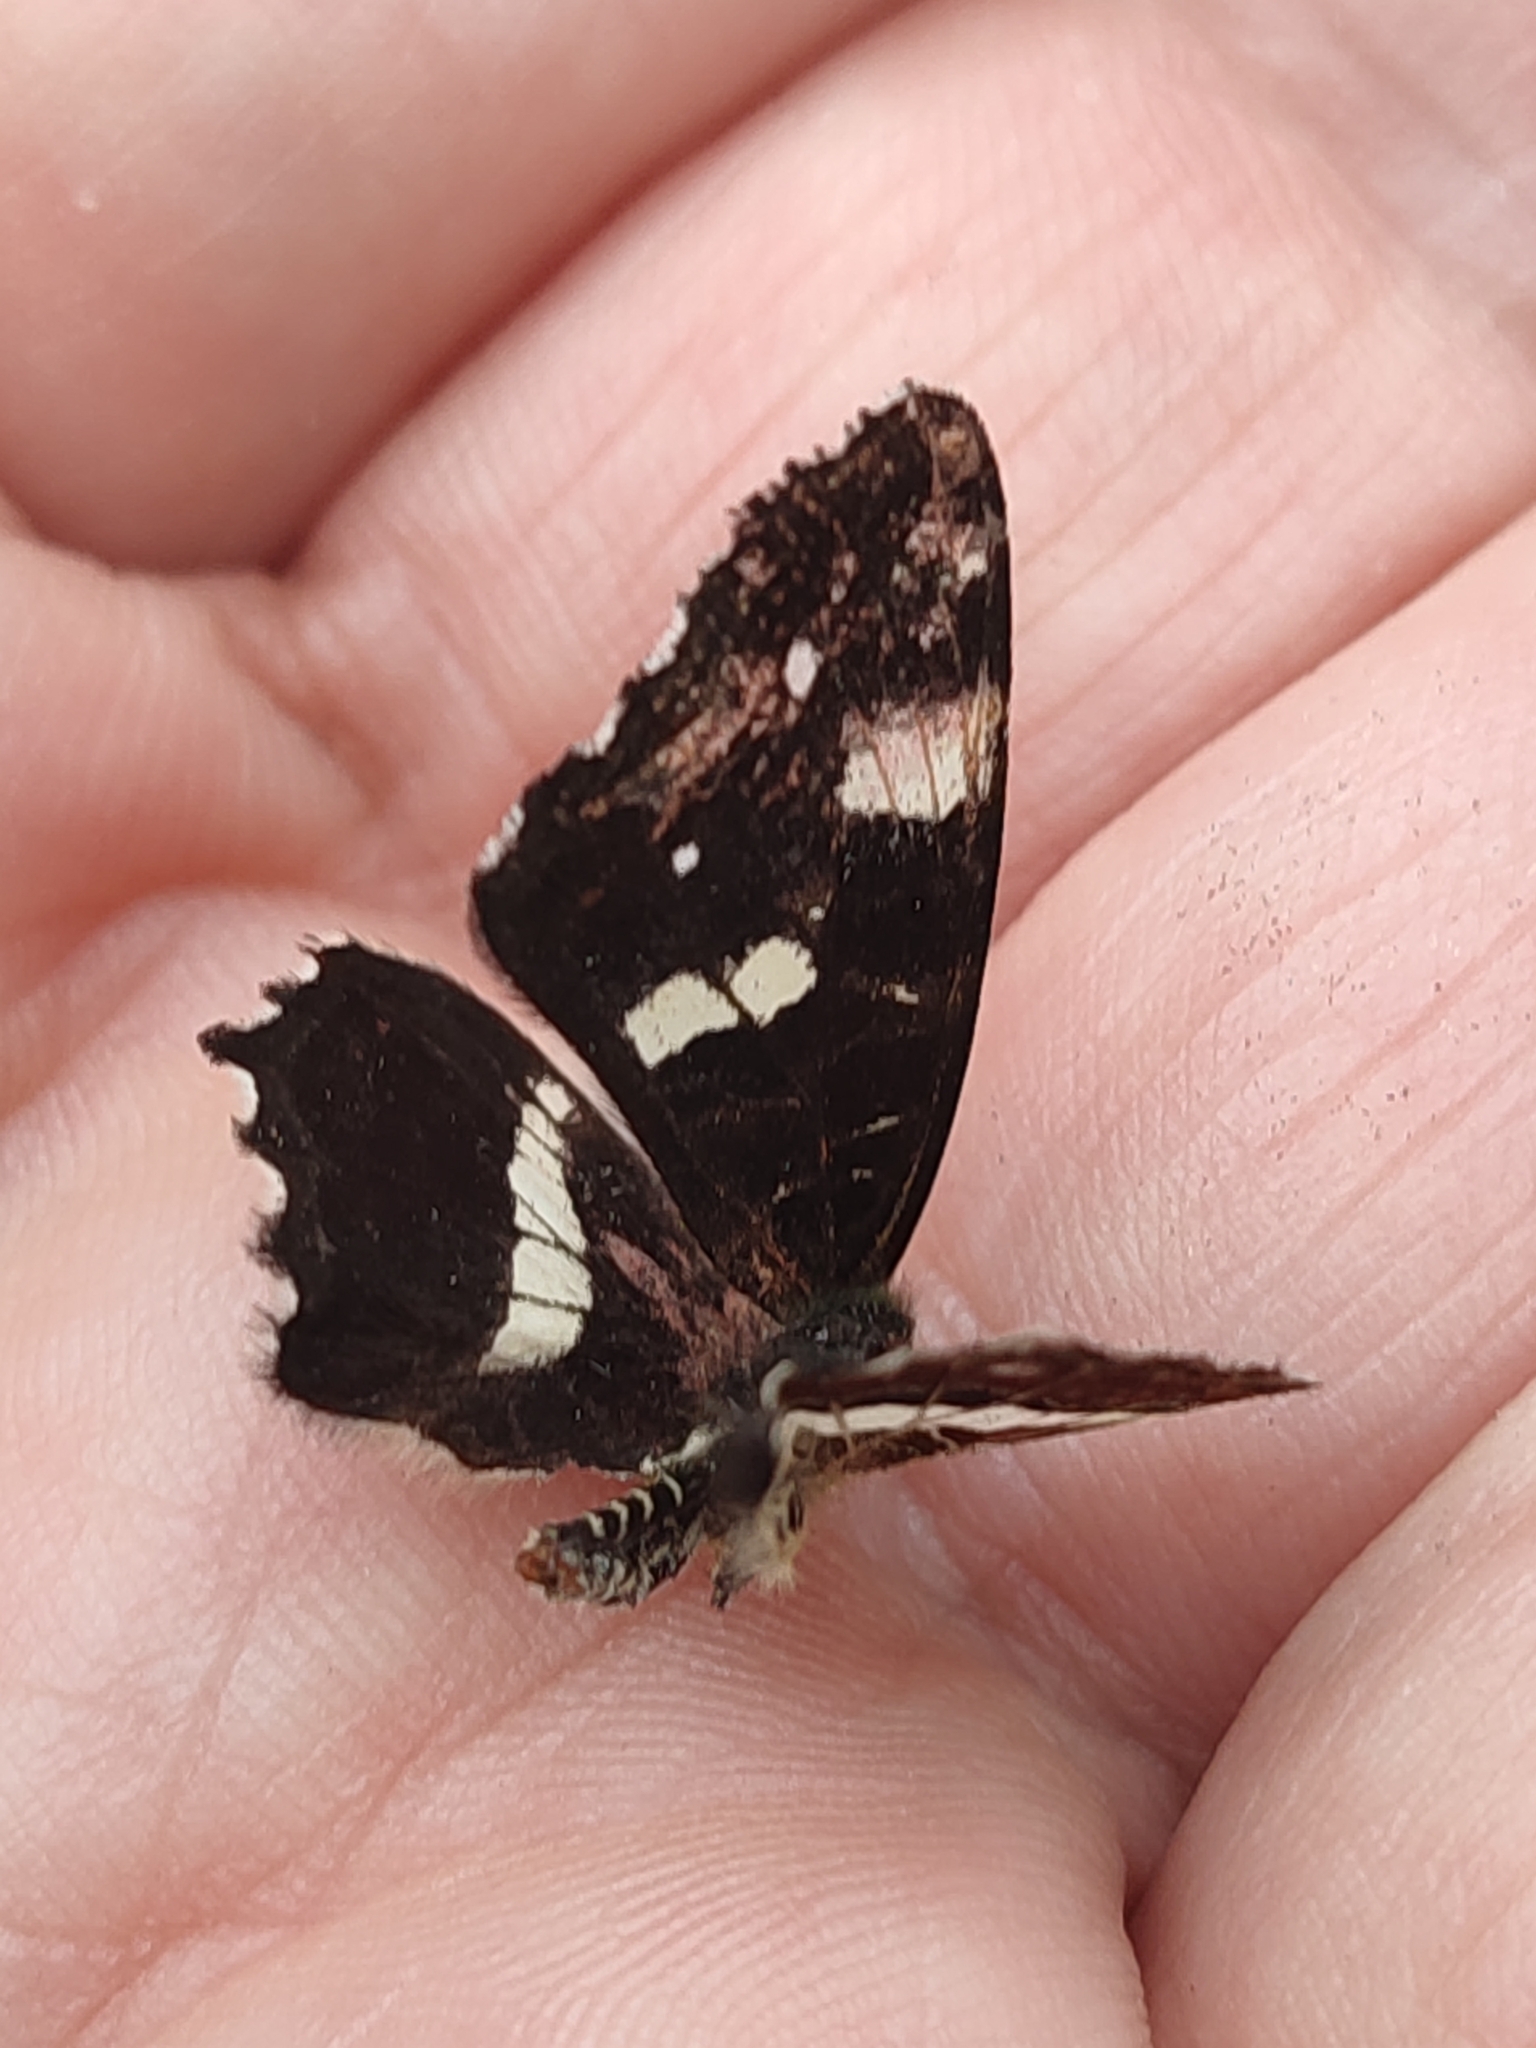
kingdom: Animalia
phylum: Arthropoda
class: Insecta
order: Lepidoptera
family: Nymphalidae
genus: Araschnia
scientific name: Araschnia levana
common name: Map butterfly
